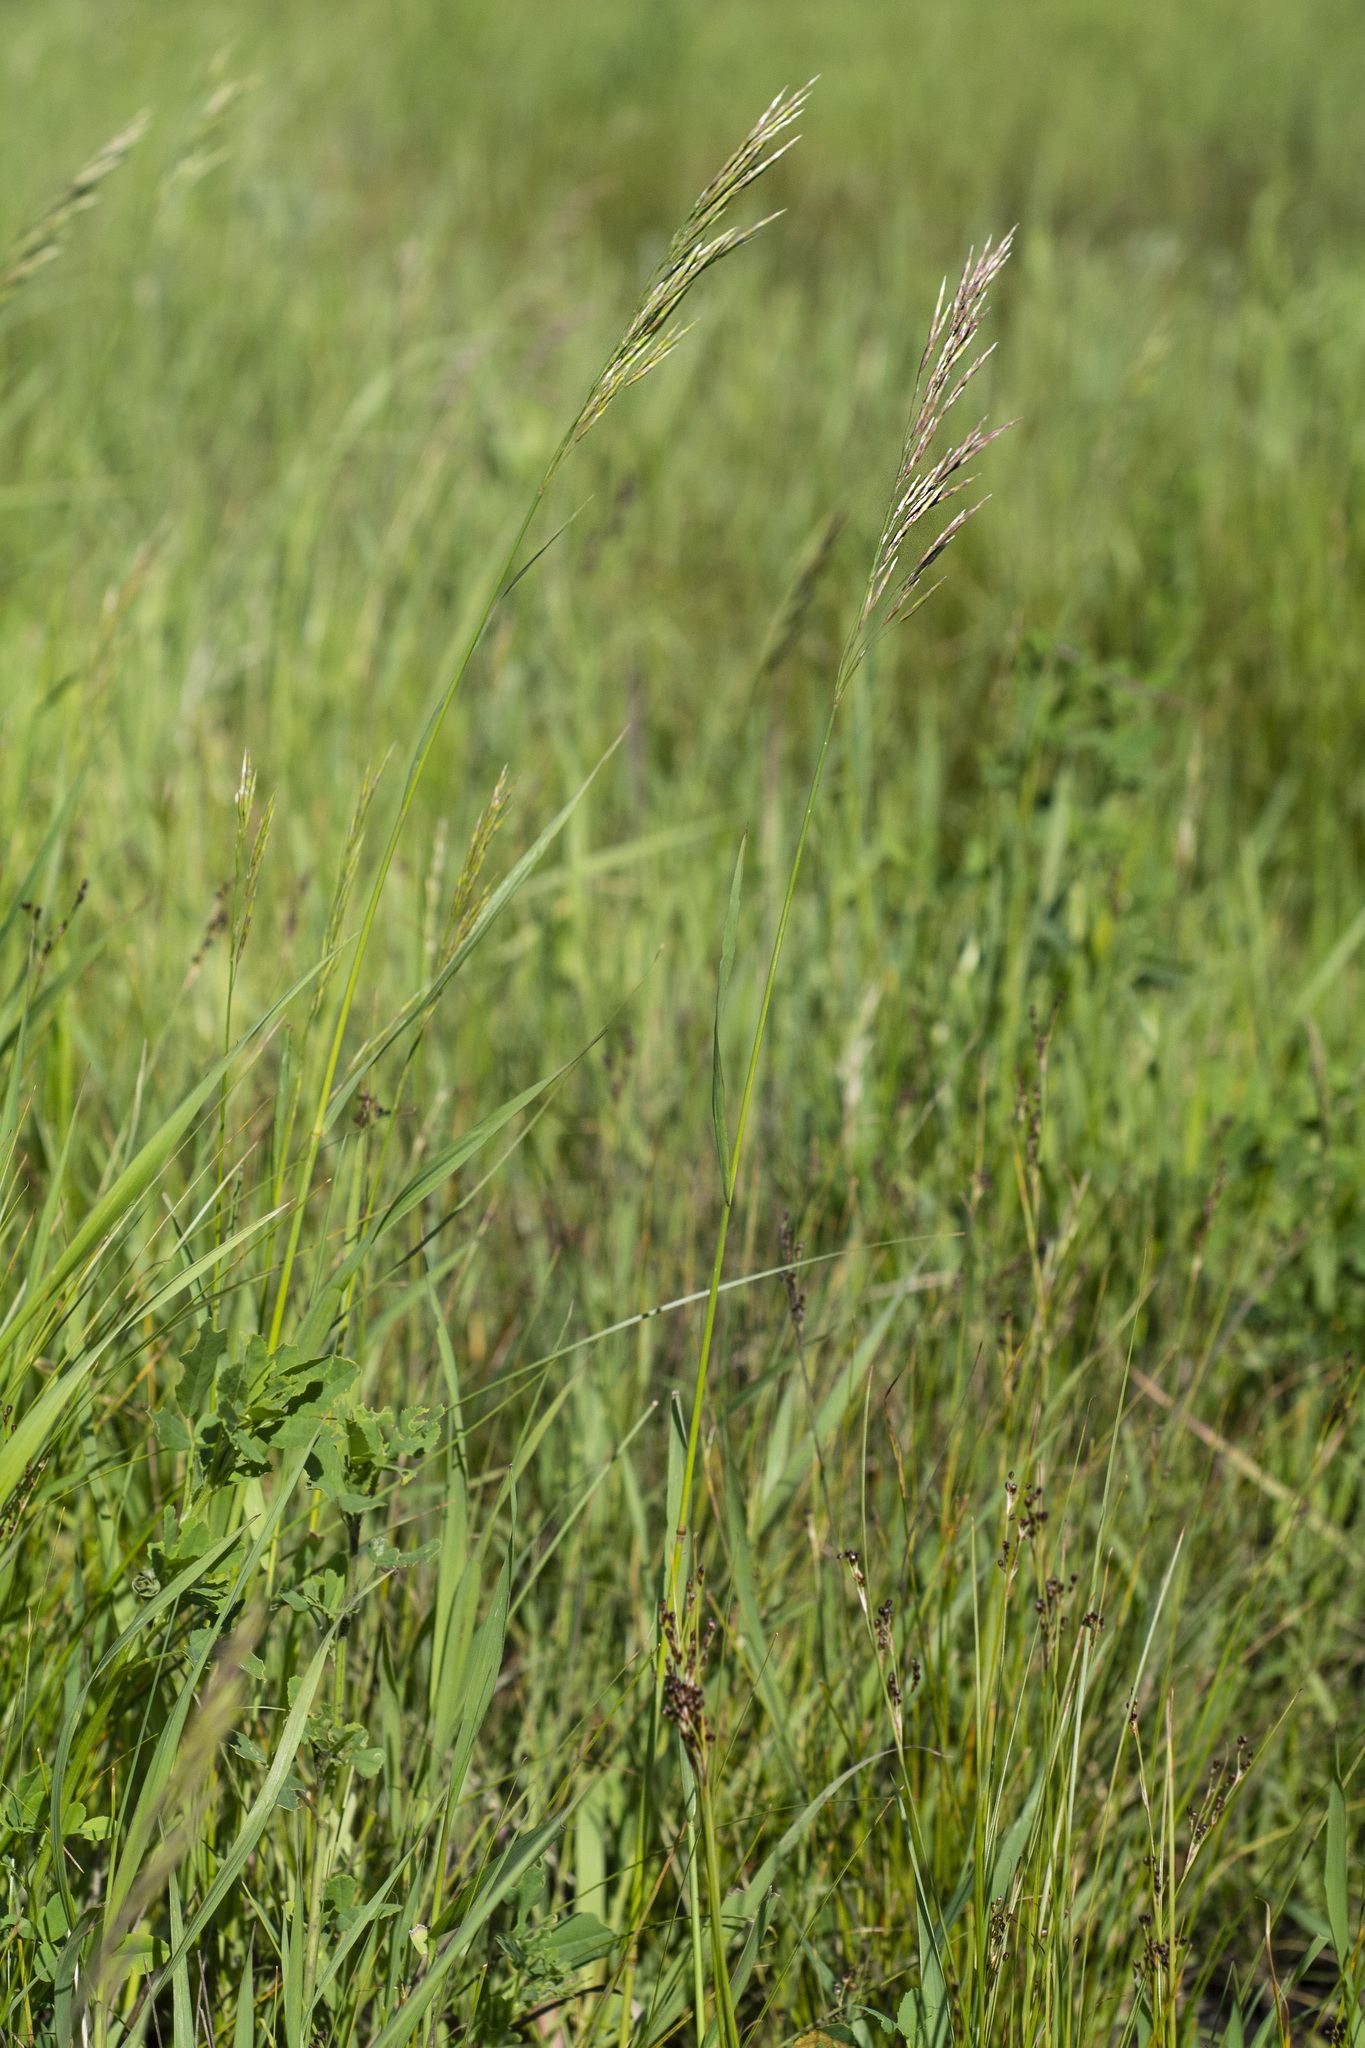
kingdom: Plantae
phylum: Tracheophyta
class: Liliopsida
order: Poales
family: Poaceae
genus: Bromus
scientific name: Bromus inermis
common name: Smooth brome
